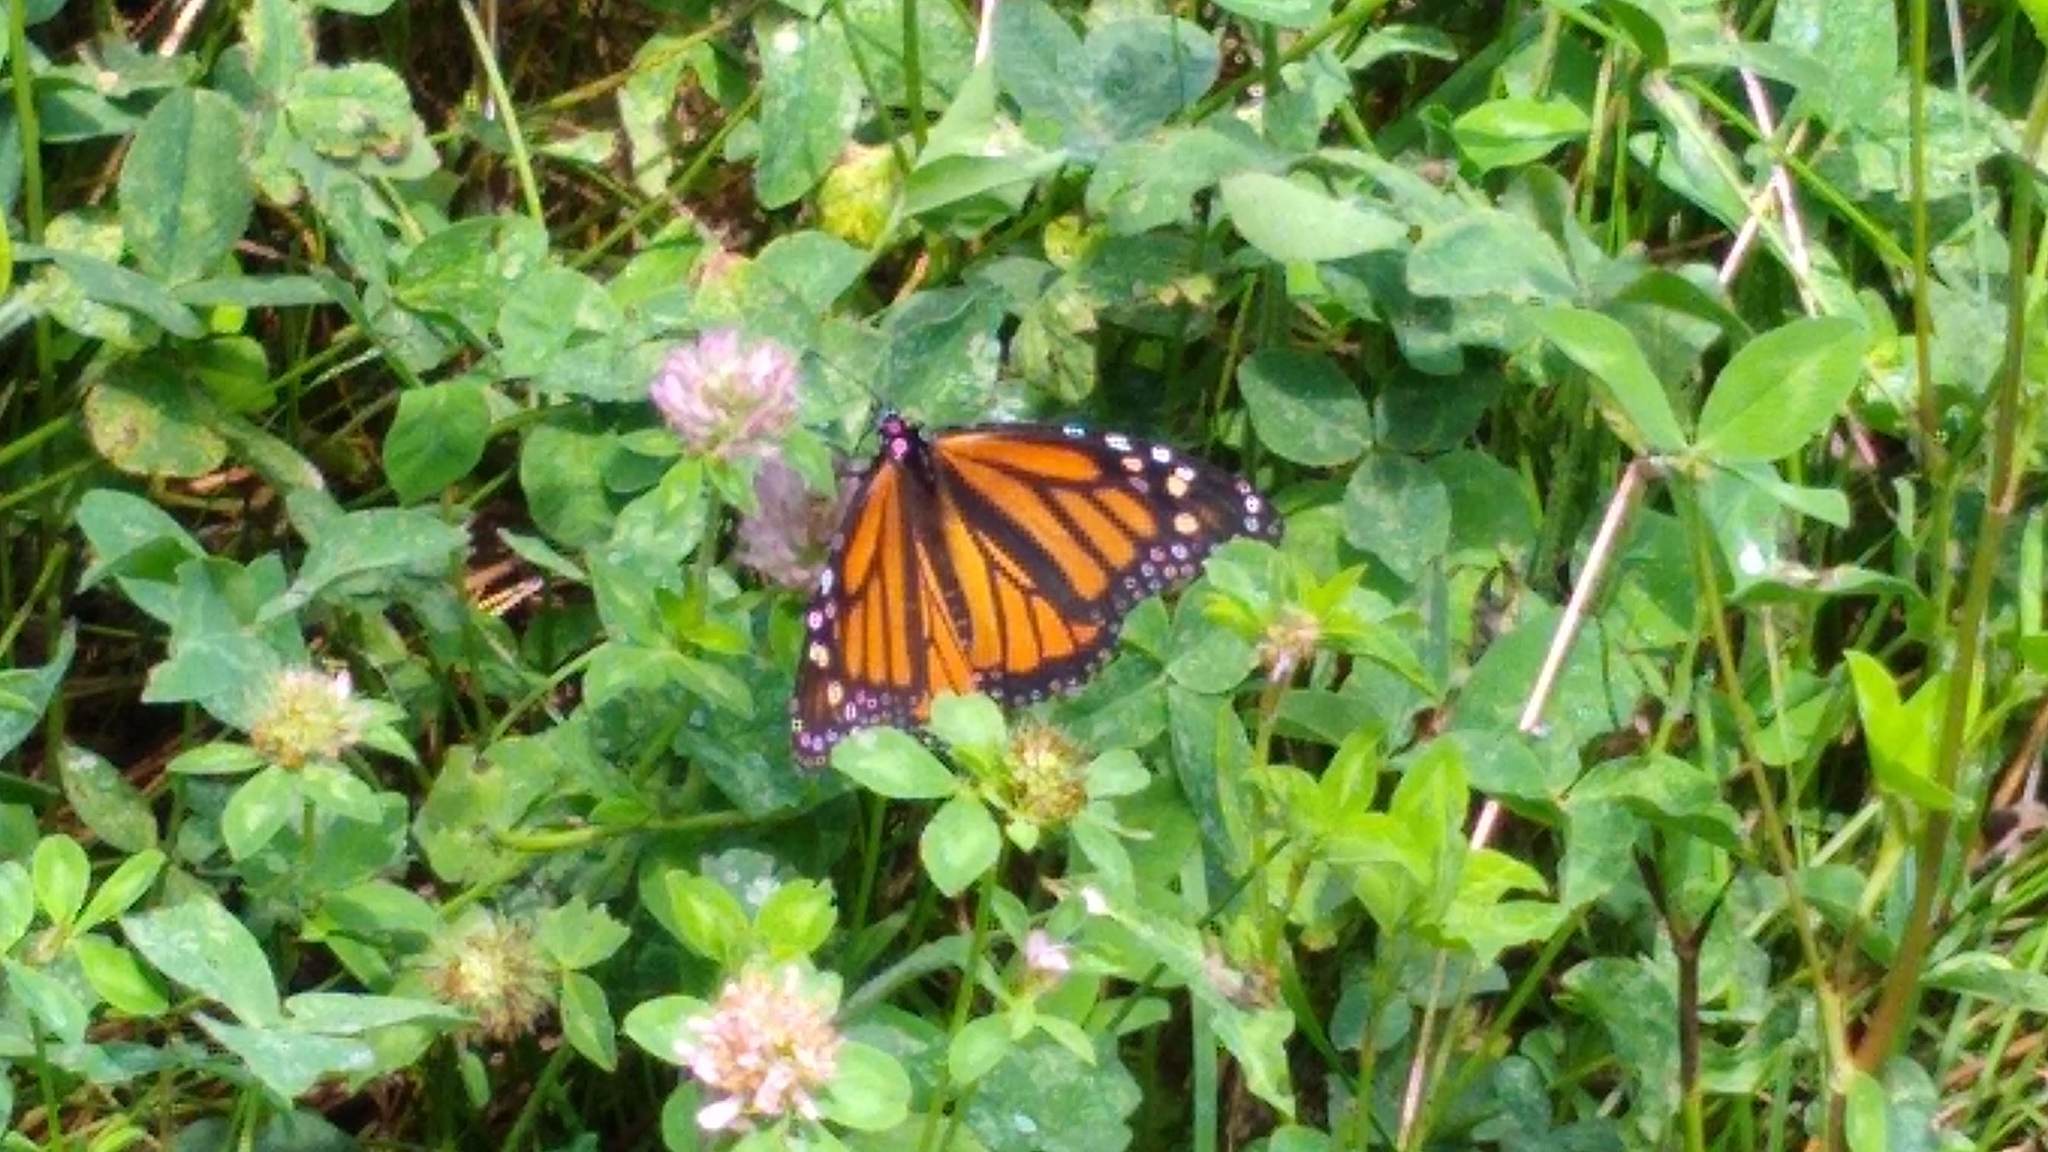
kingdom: Animalia
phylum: Arthropoda
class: Insecta
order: Lepidoptera
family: Nymphalidae
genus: Danaus
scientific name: Danaus plexippus
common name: Monarch
